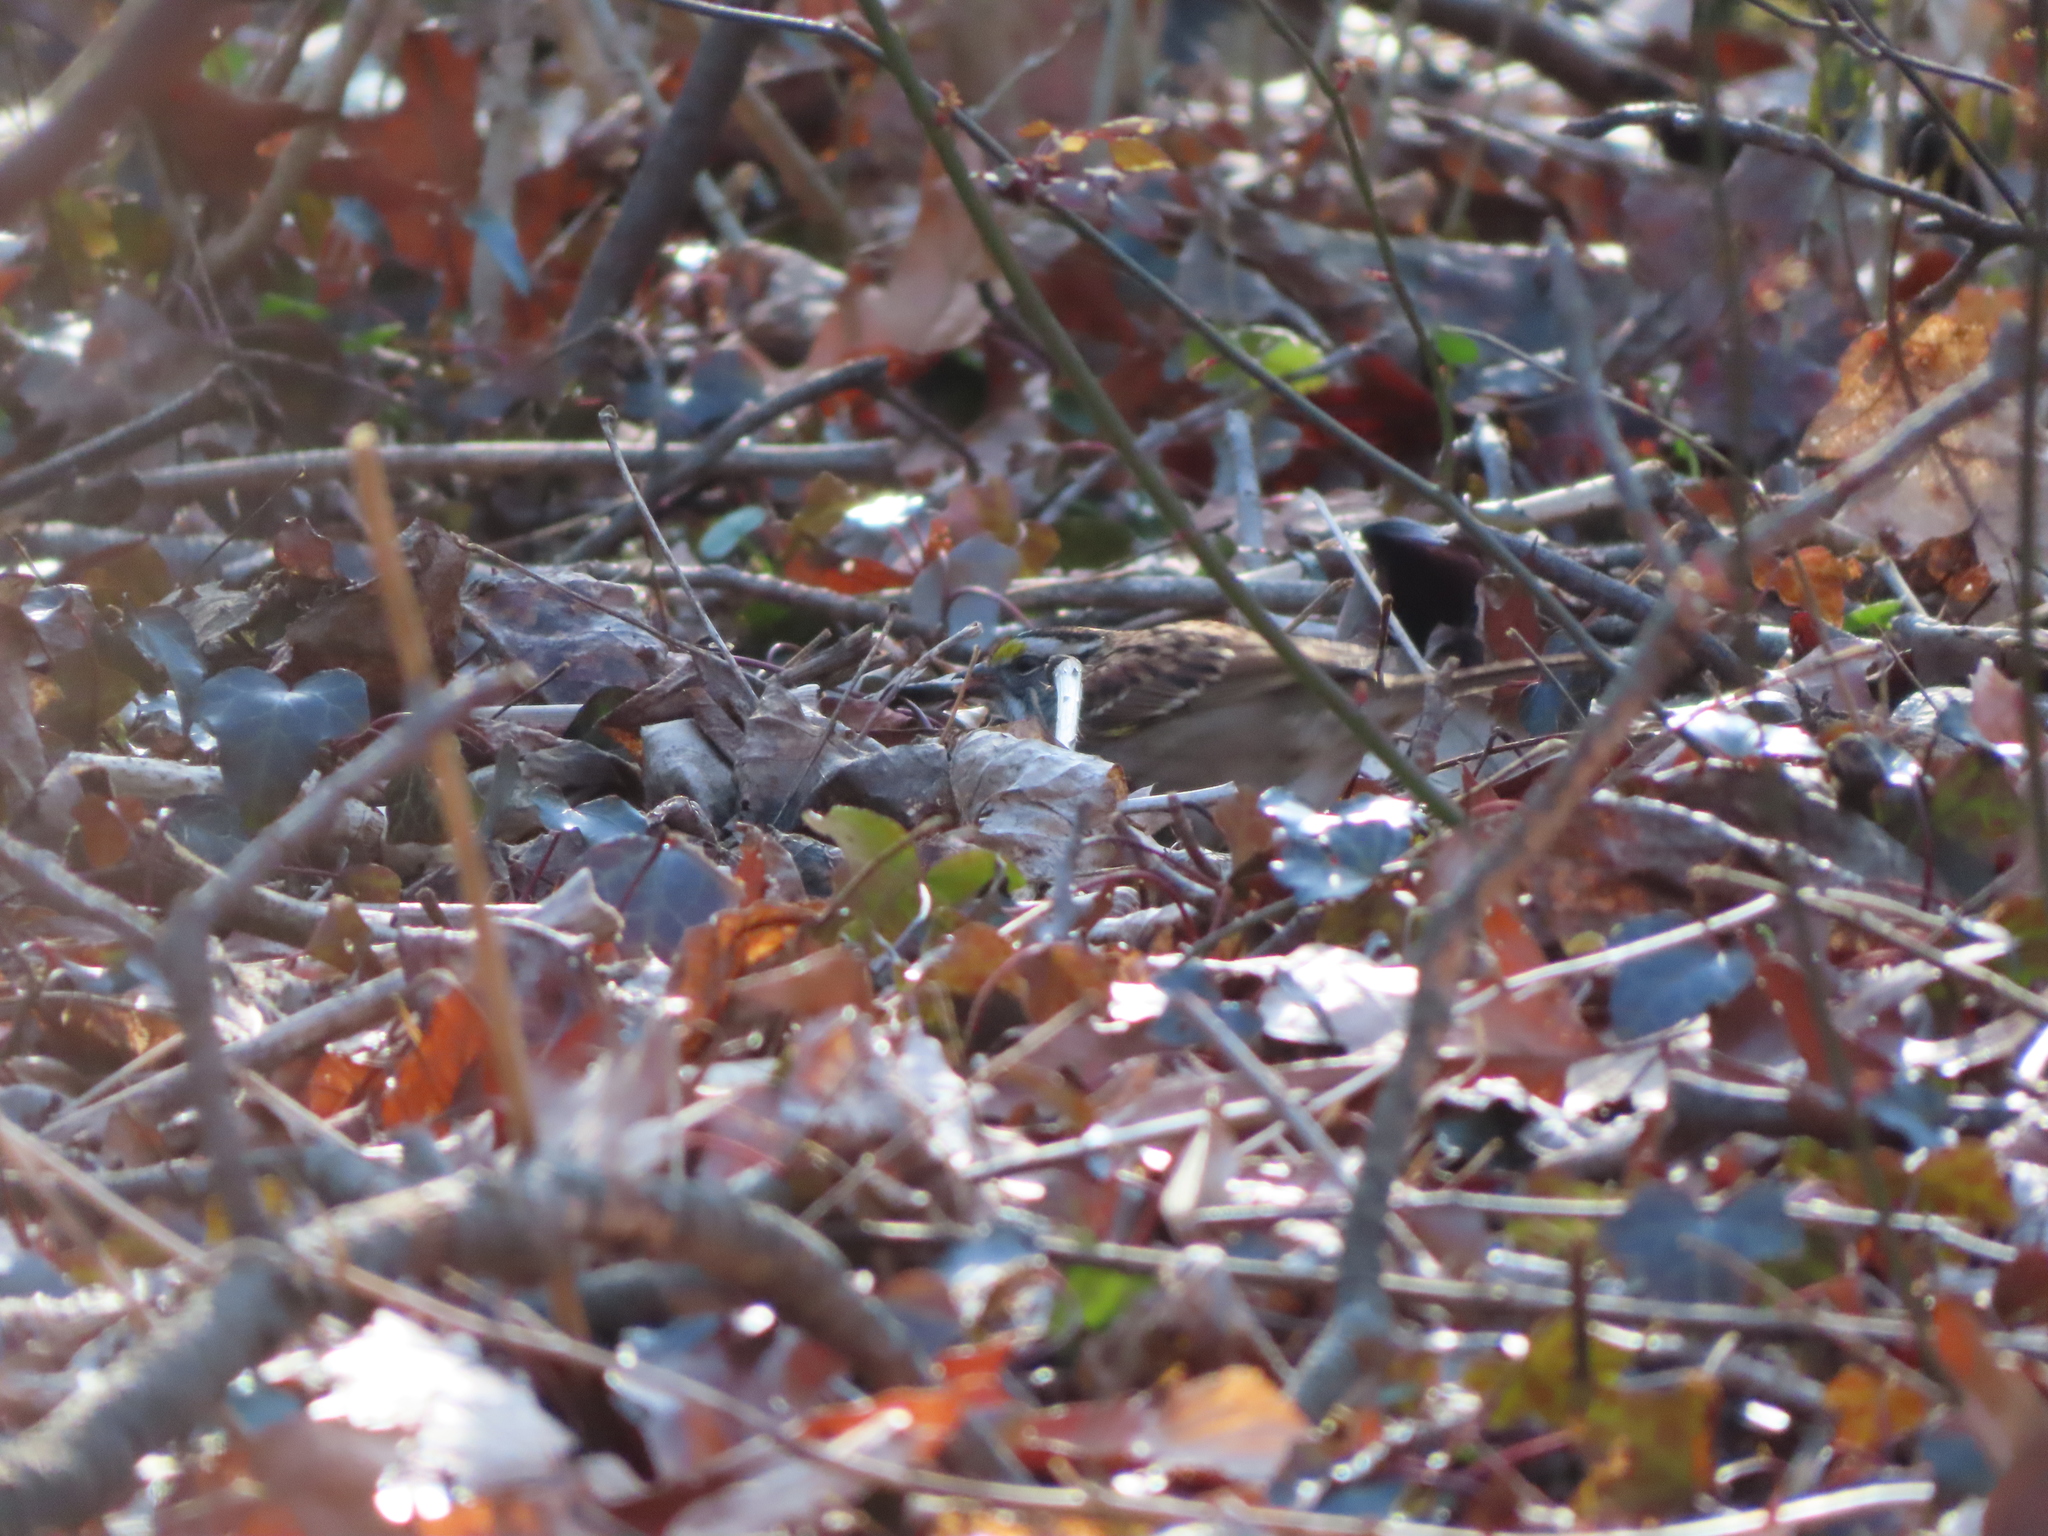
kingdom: Animalia
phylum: Chordata
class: Aves
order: Passeriformes
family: Passerellidae
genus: Zonotrichia
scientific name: Zonotrichia albicollis
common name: White-throated sparrow
